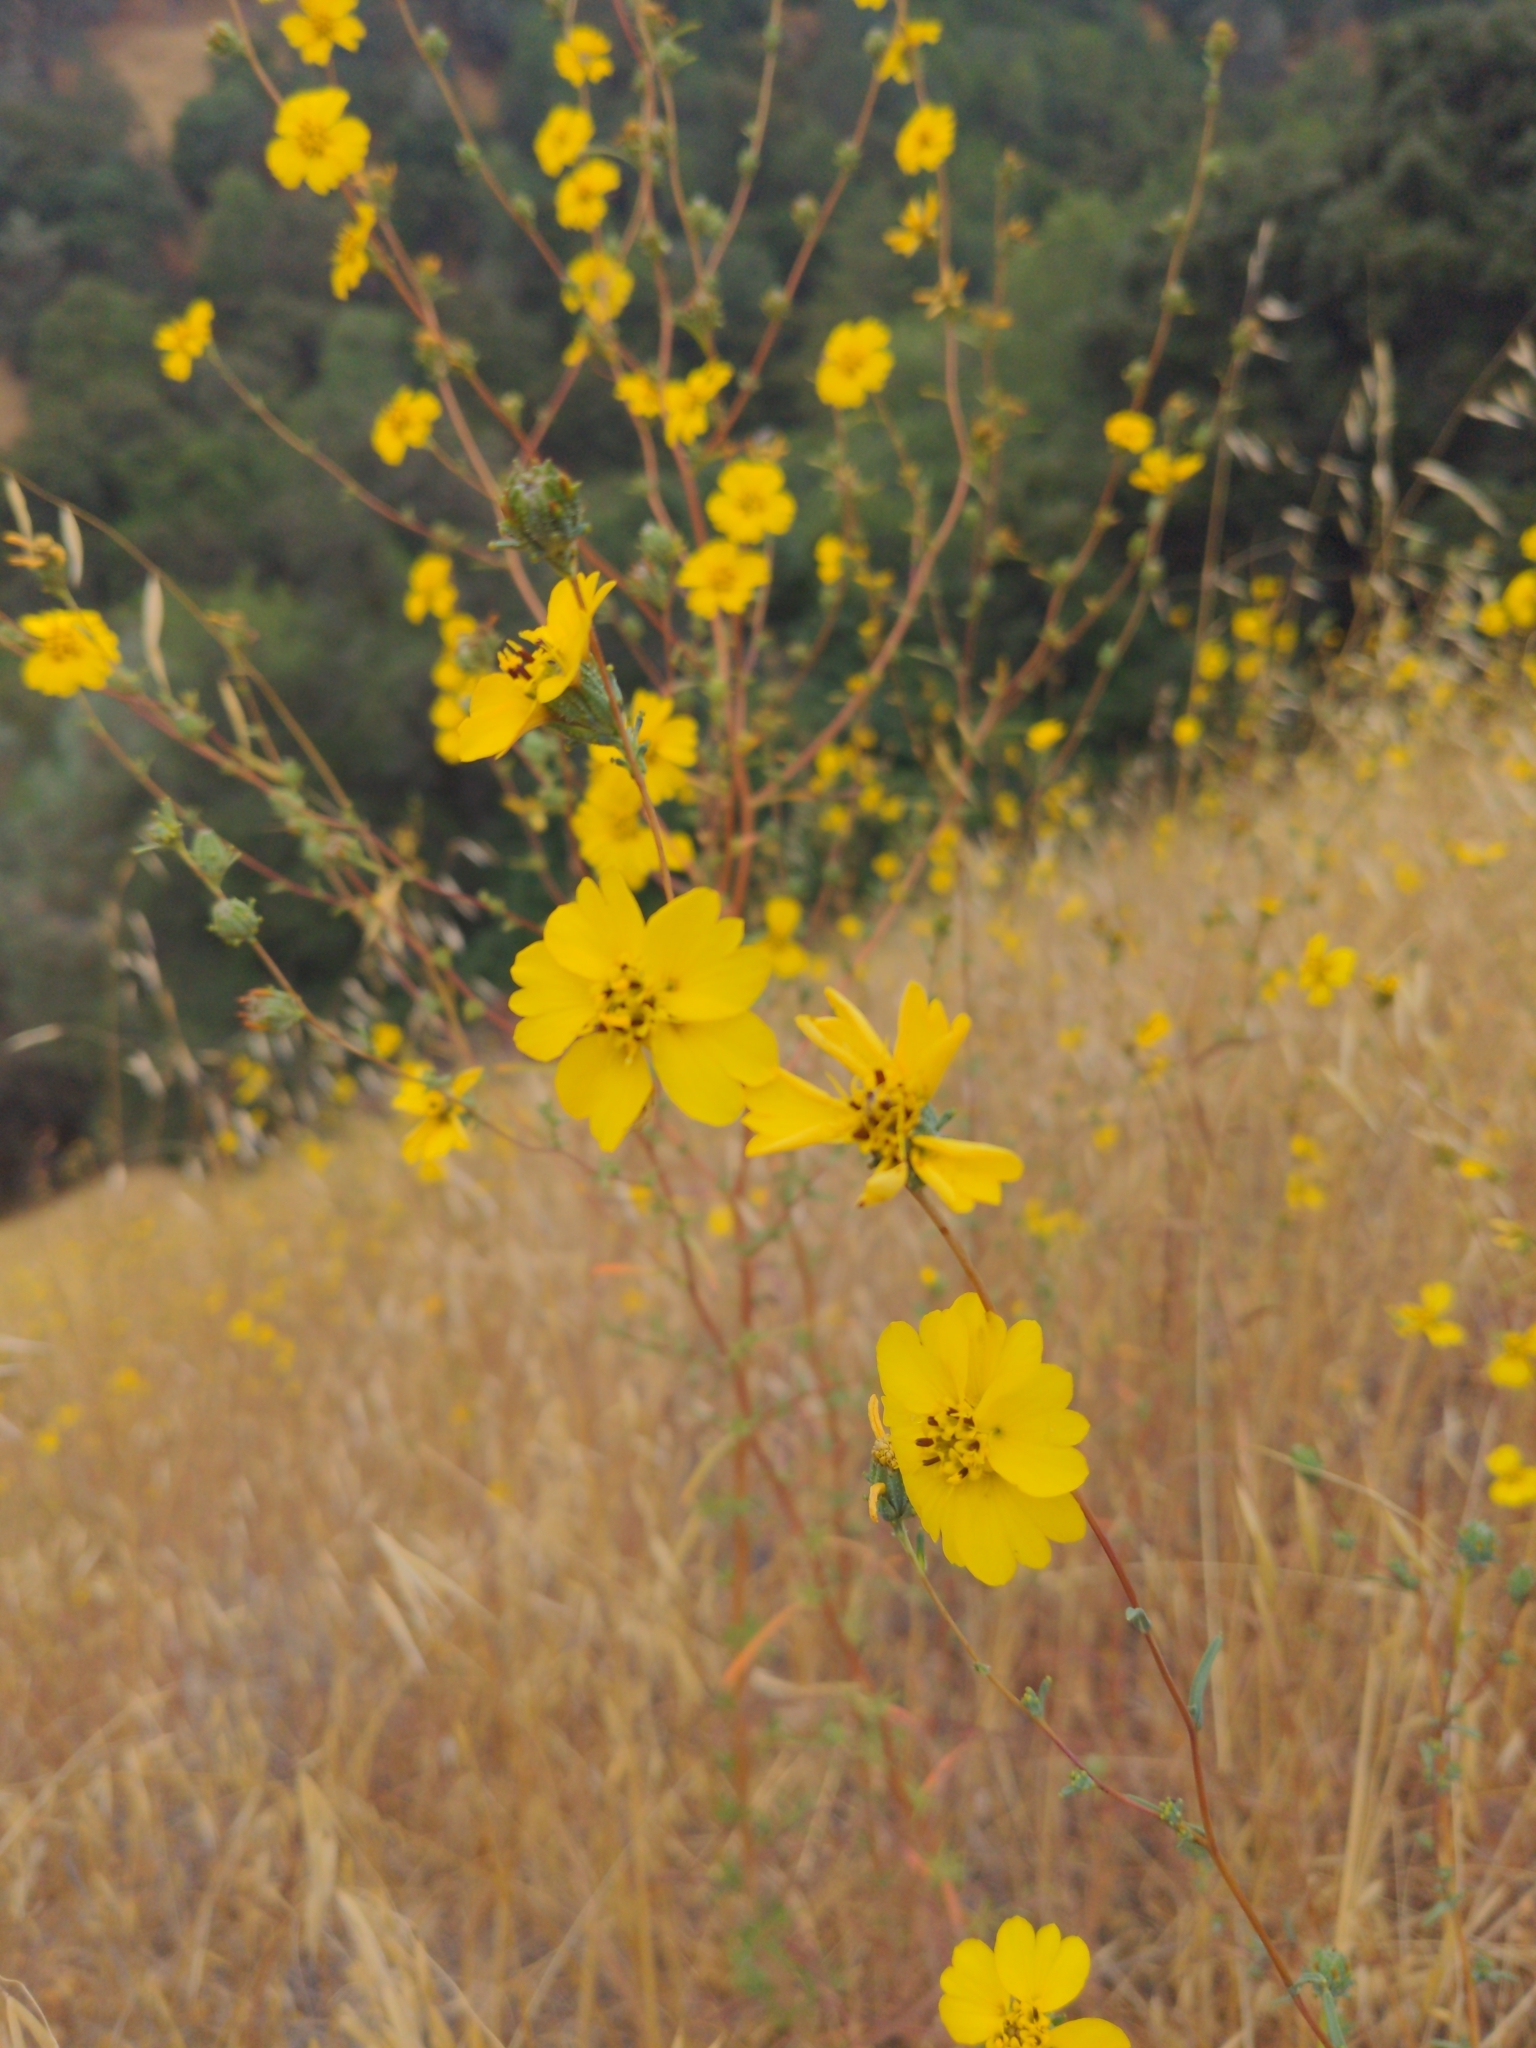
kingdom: Plantae
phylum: Tracheophyta
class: Magnoliopsida
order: Asterales
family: Asteraceae
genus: Calycadenia
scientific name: Calycadenia truncata
